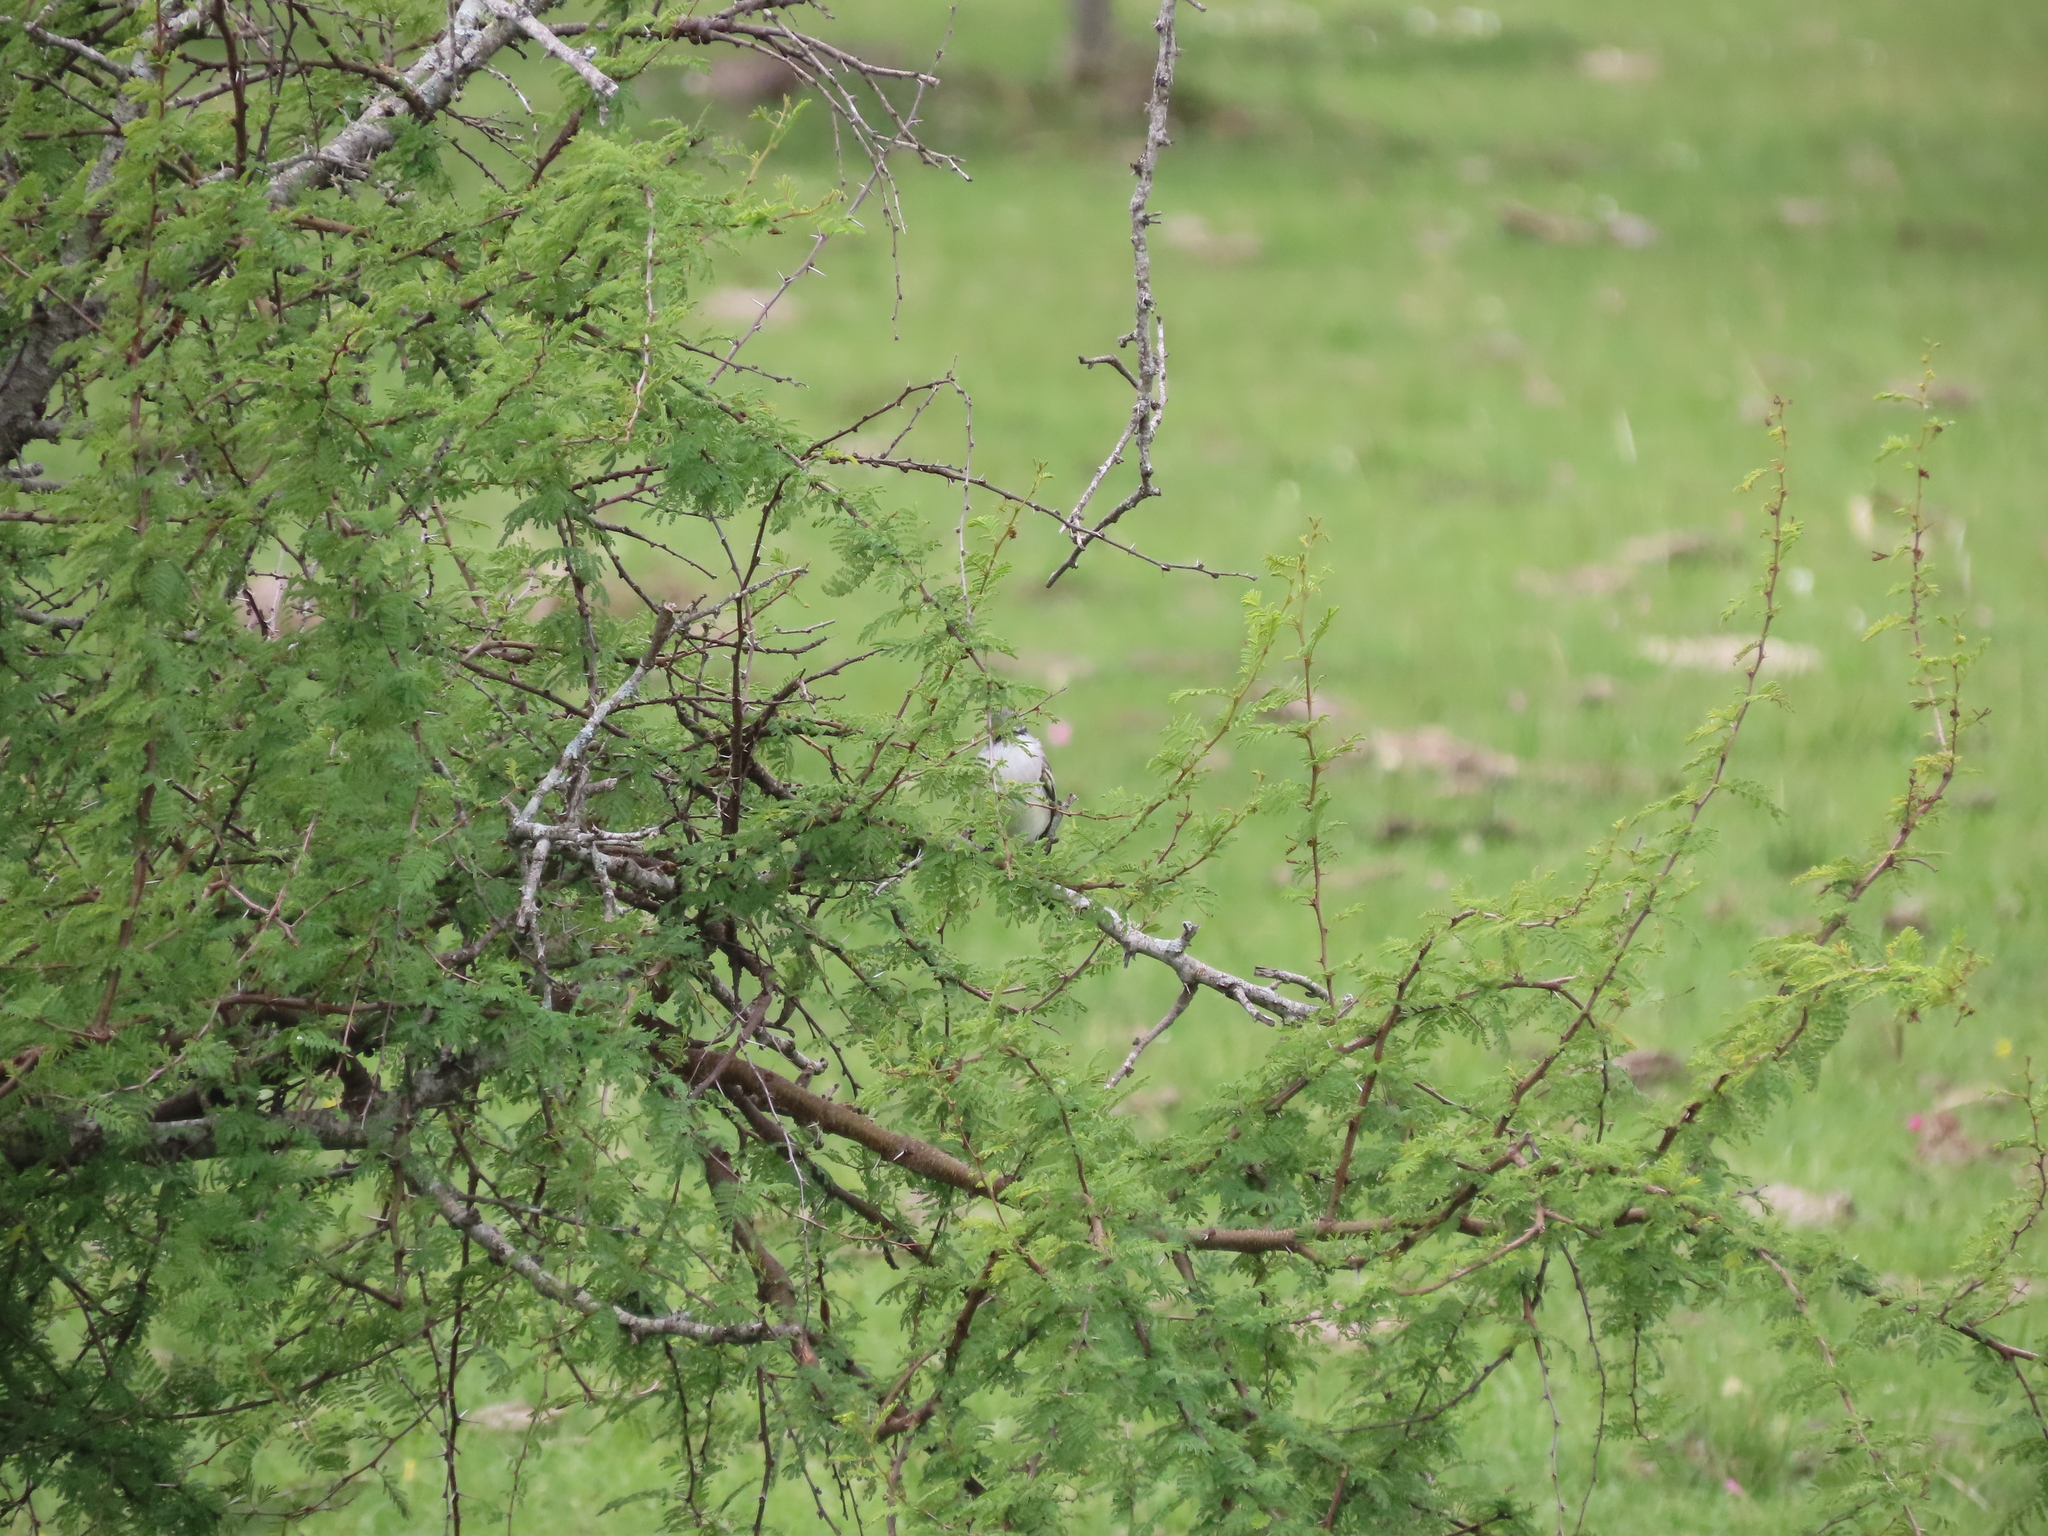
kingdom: Animalia
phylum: Chordata
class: Aves
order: Passeriformes
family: Polioptilidae
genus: Polioptila
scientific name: Polioptila dumicola
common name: Masked gnatcatcher
